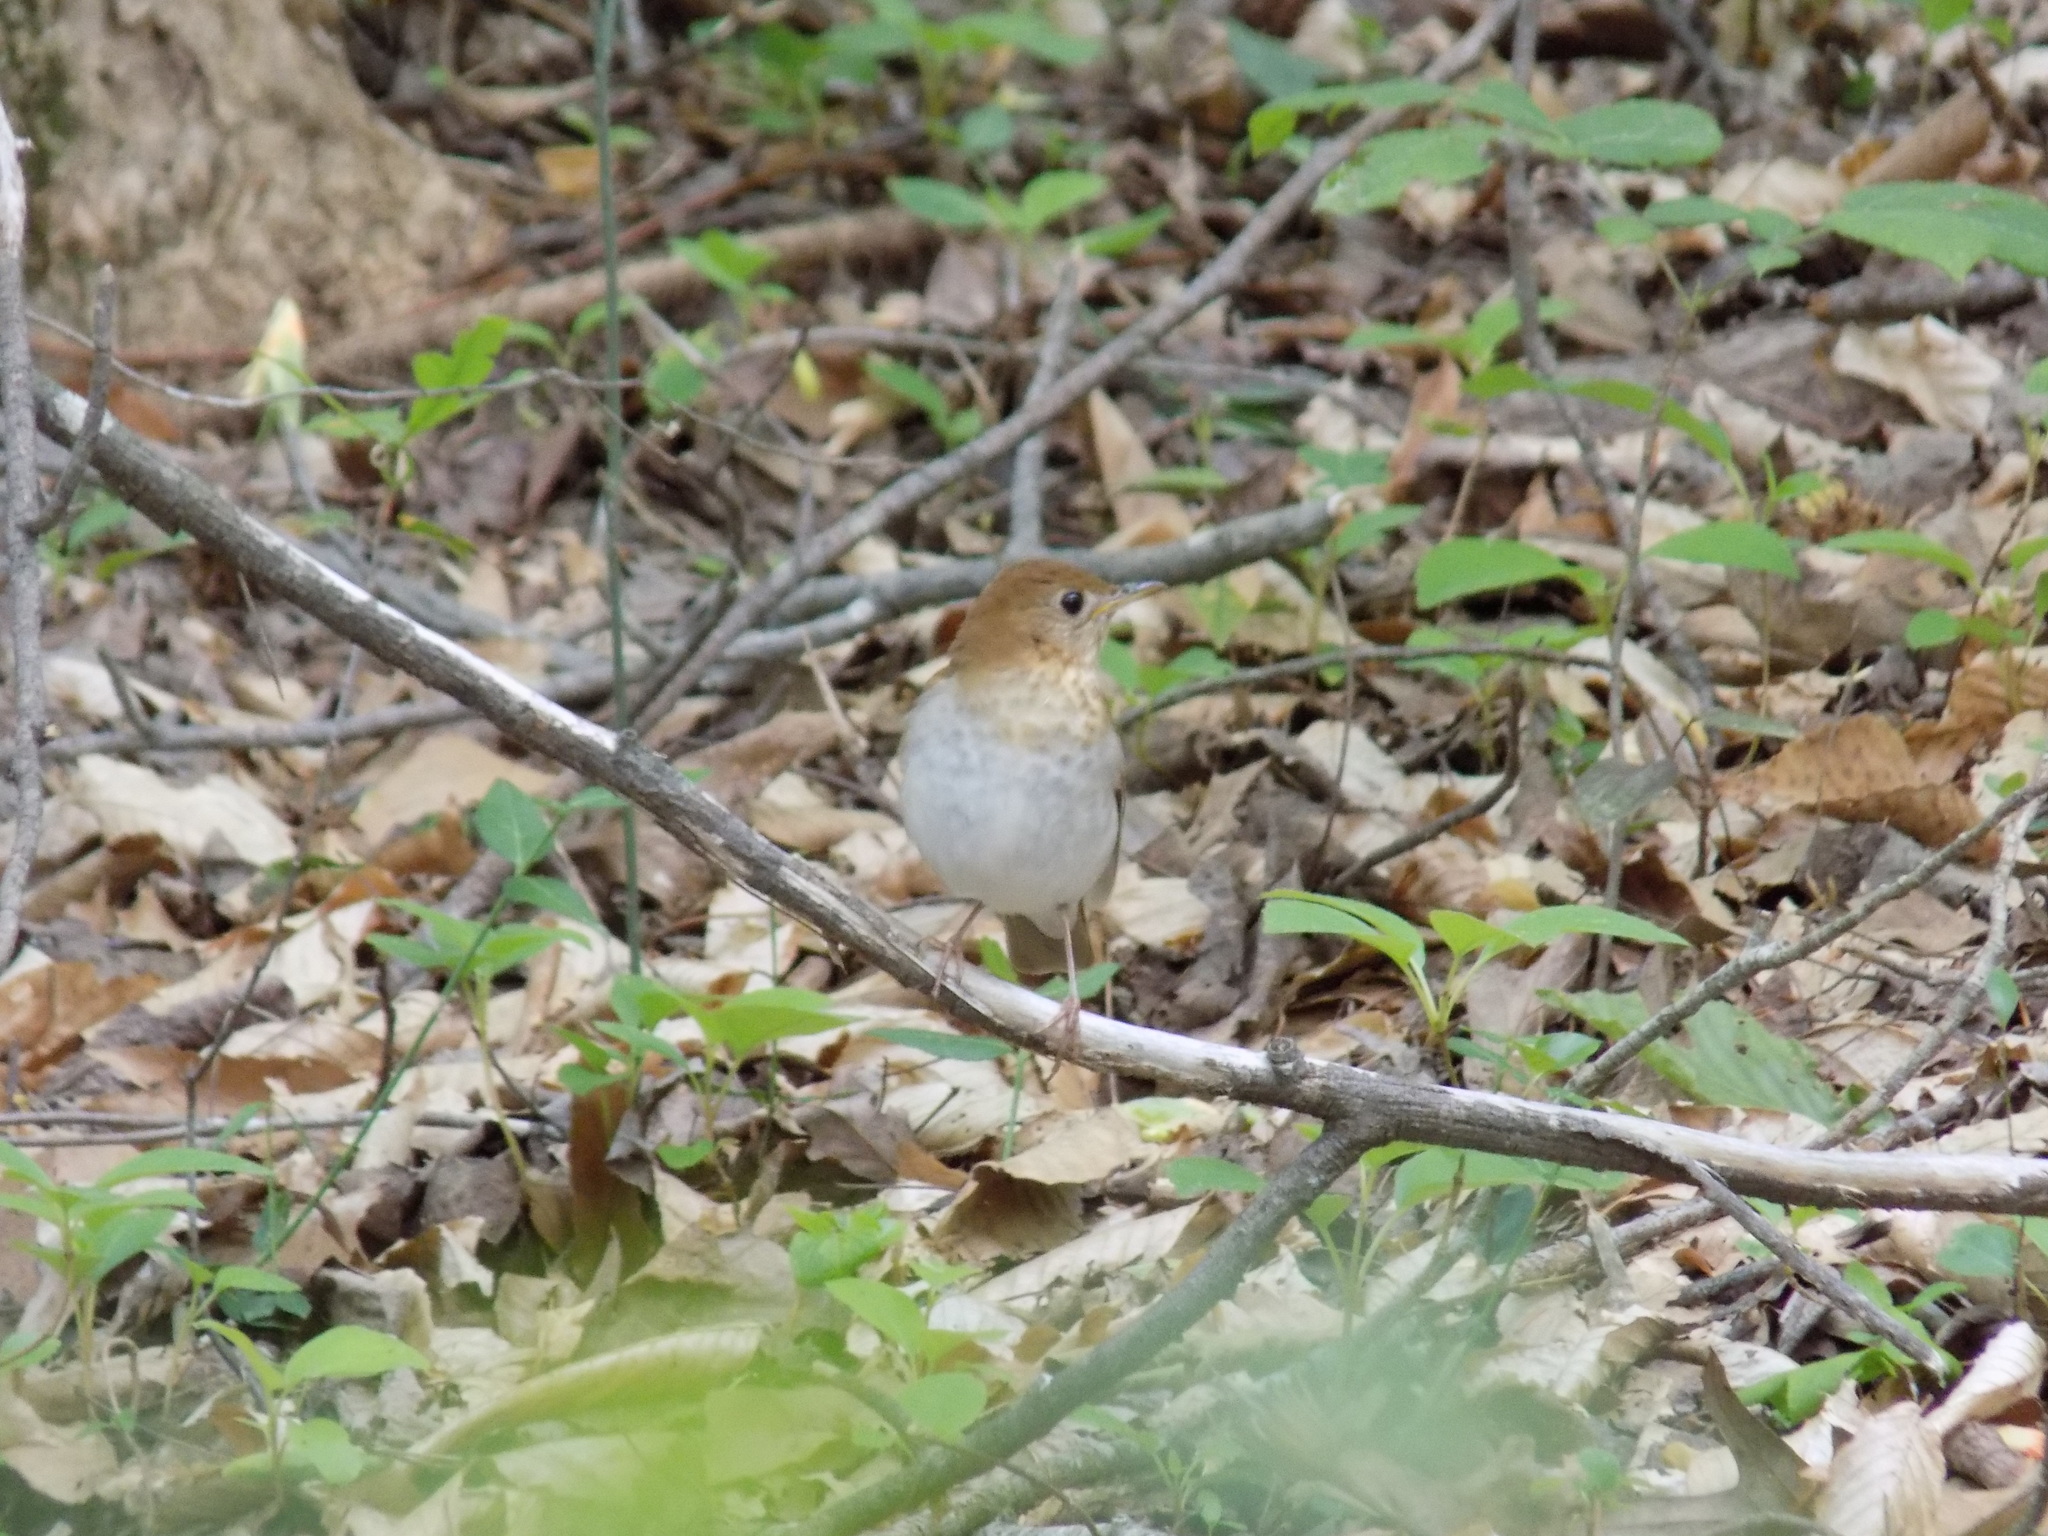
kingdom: Animalia
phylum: Chordata
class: Aves
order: Passeriformes
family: Turdidae
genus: Catharus
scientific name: Catharus fuscescens
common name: Veery
